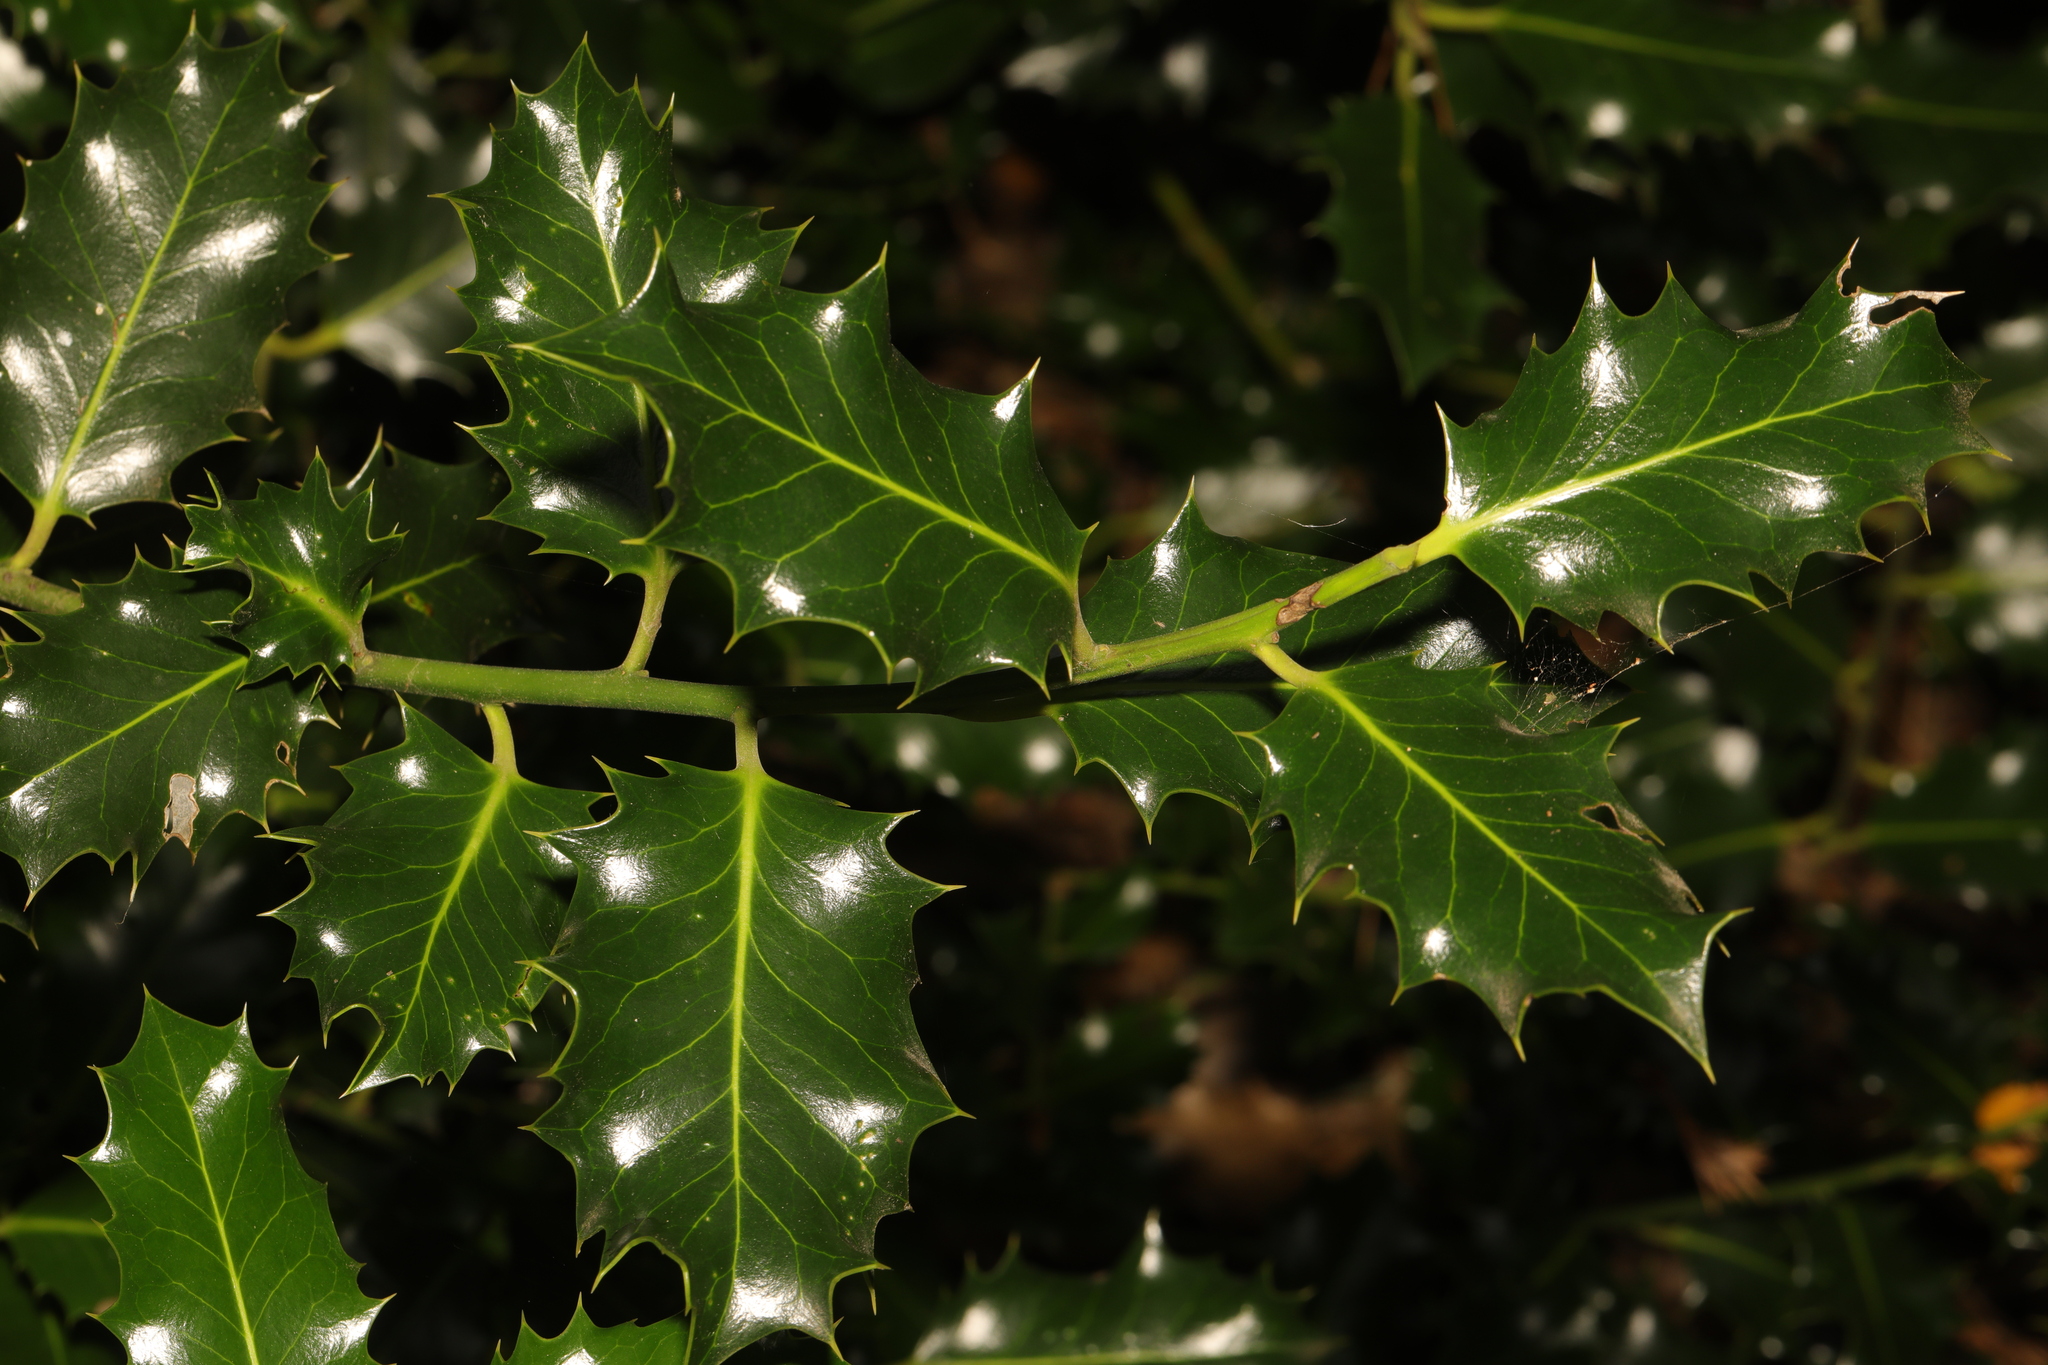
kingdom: Plantae
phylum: Tracheophyta
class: Magnoliopsida
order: Aquifoliales
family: Aquifoliaceae
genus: Ilex
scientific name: Ilex aquifolium
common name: English holly
